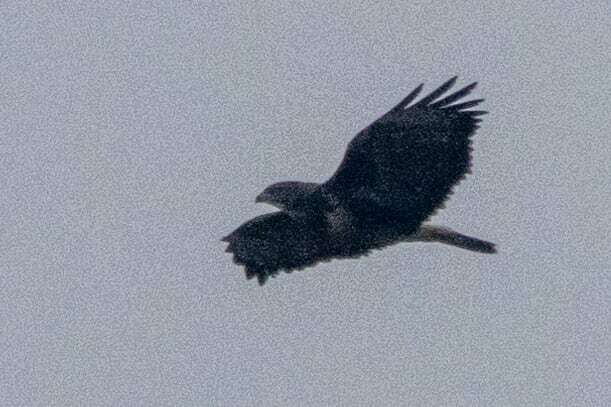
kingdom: Animalia
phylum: Chordata
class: Aves
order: Accipitriformes
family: Accipitridae
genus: Buteo
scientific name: Buteo buteo
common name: Common buzzard
